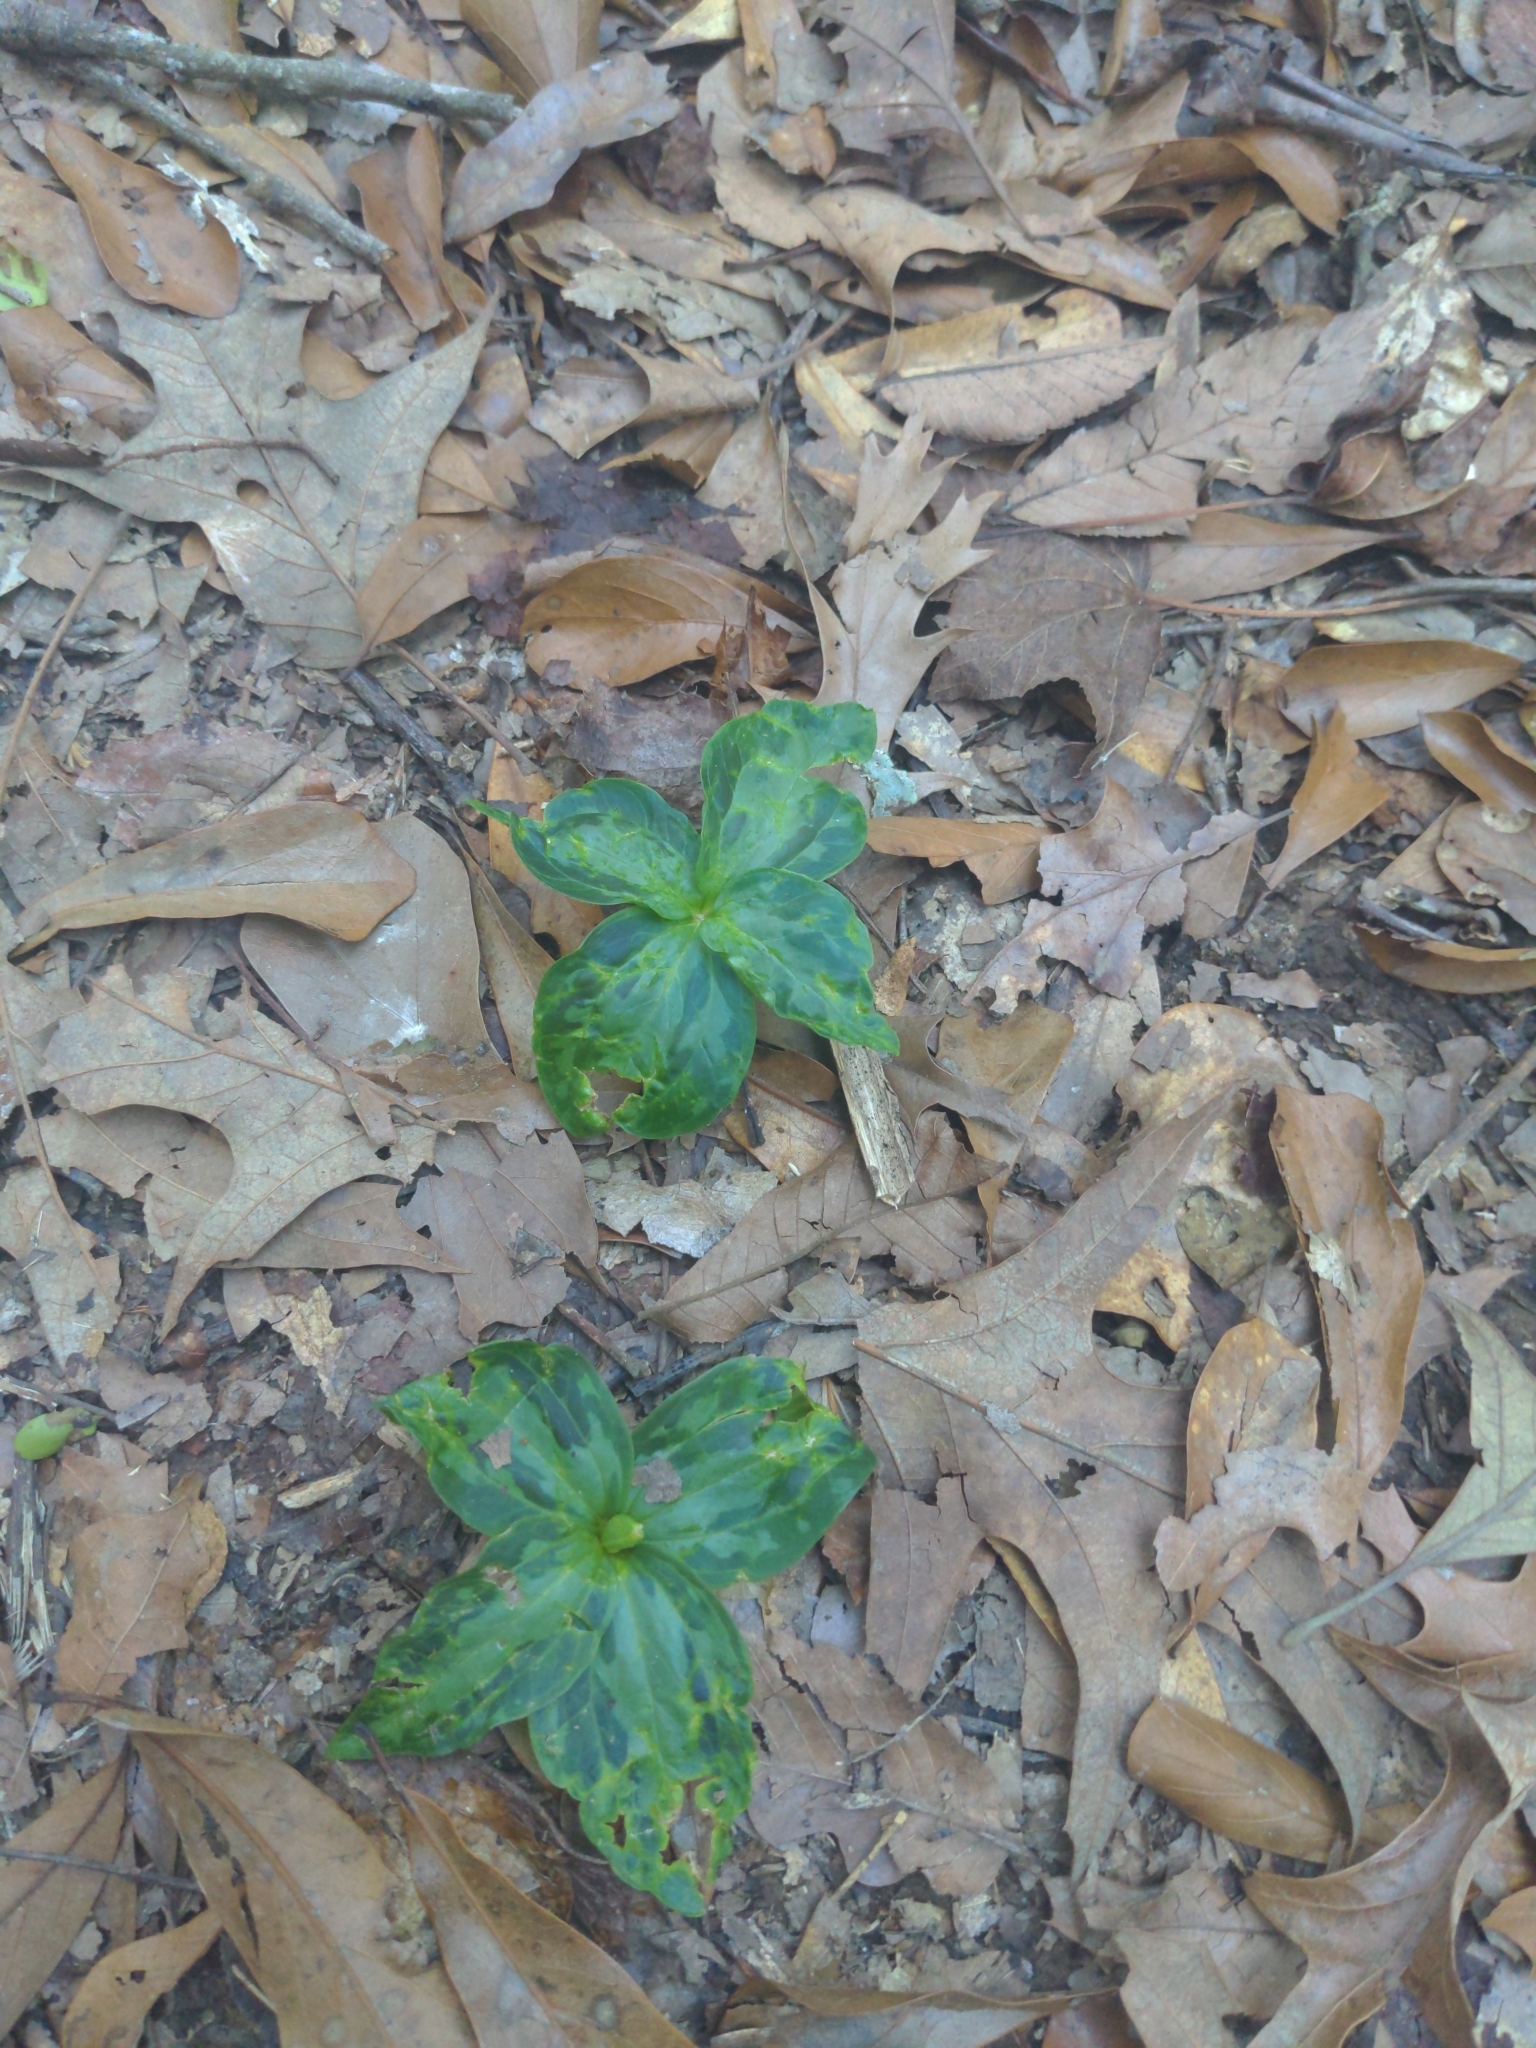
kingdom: Plantae
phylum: Tracheophyta
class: Liliopsida
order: Liliales
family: Melanthiaceae
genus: Trillium
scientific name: Trillium foetidissimum
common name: Mississippi river trillium
